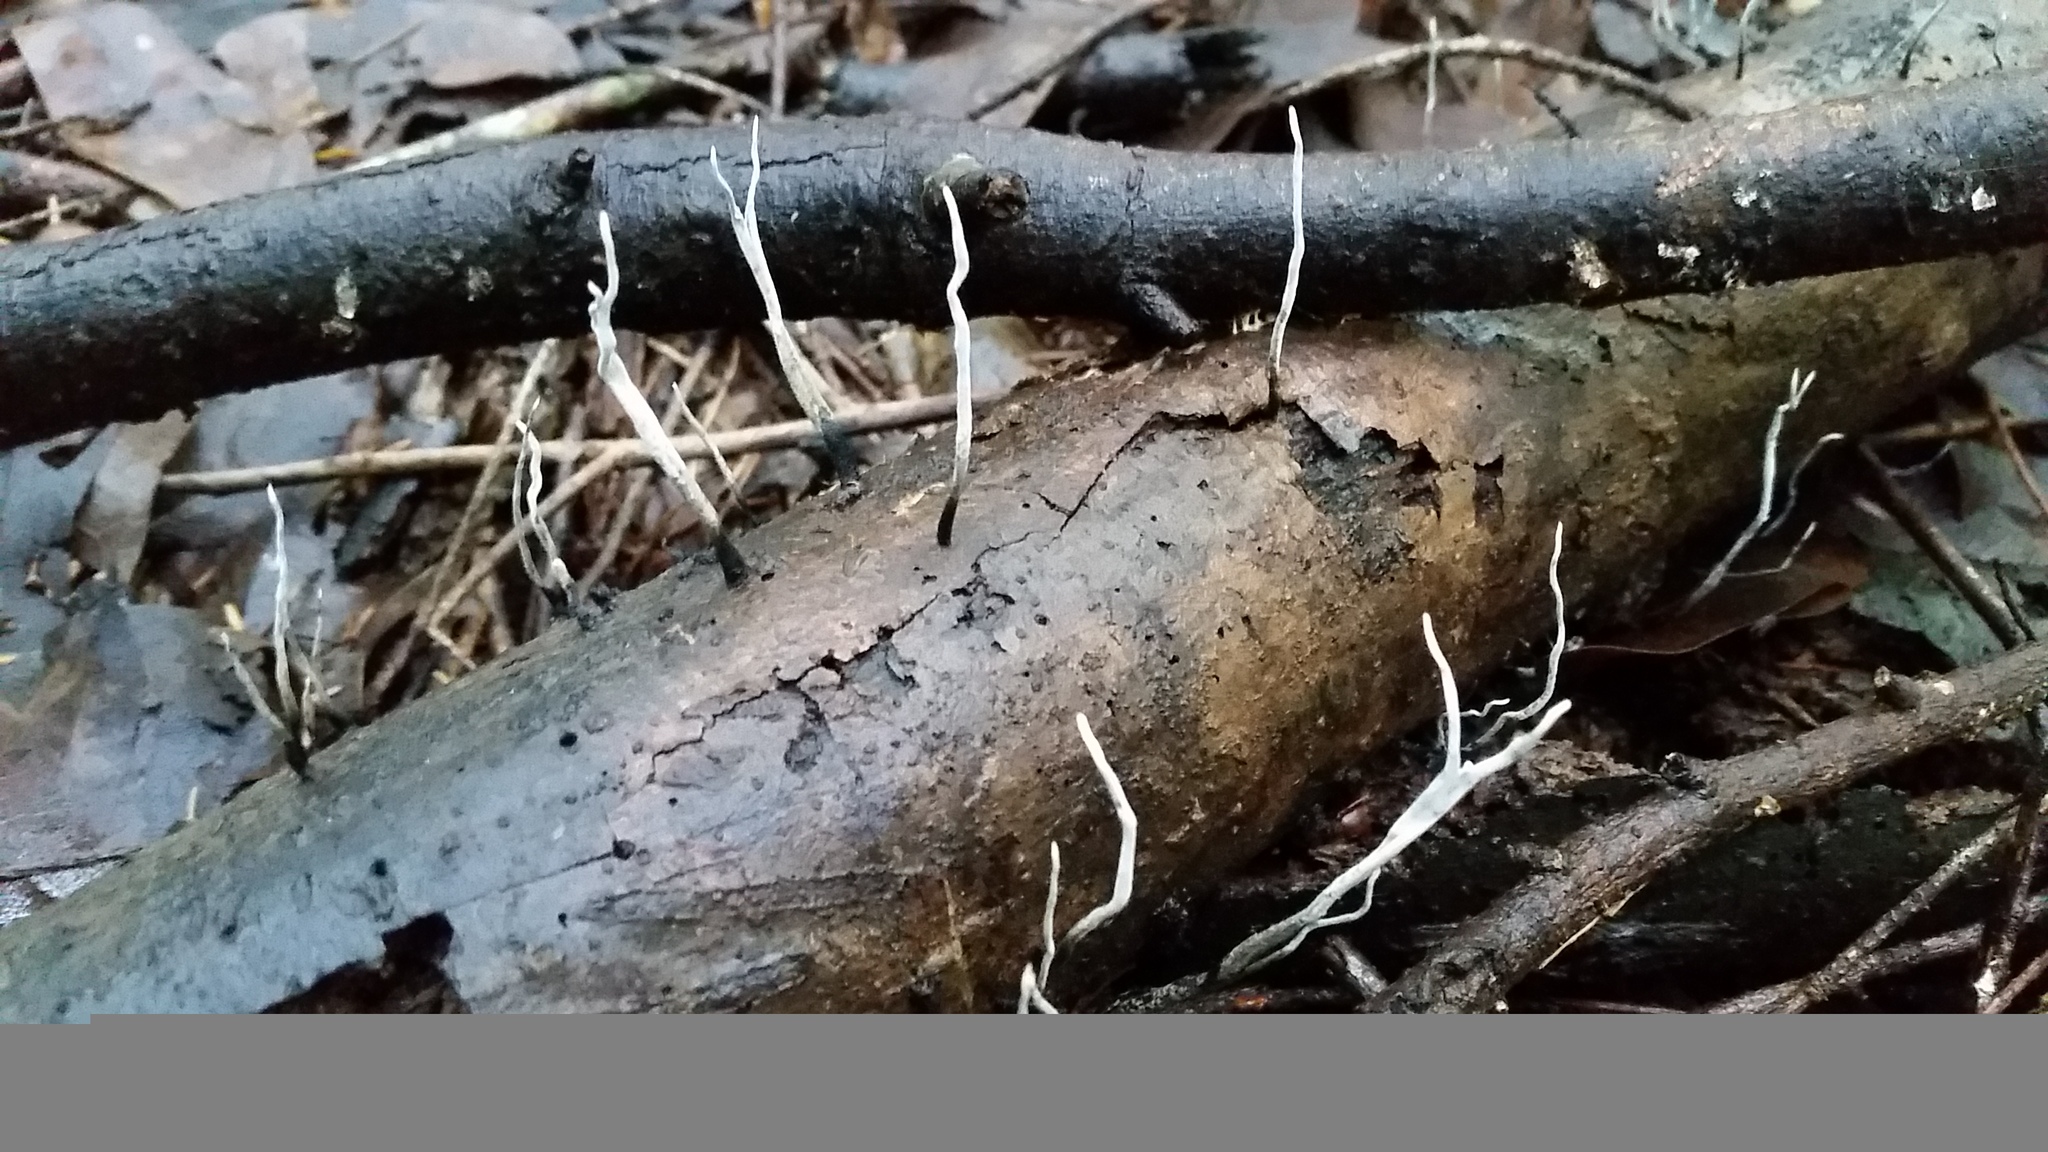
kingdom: Fungi
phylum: Ascomycota
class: Sordariomycetes
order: Xylariales
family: Xylariaceae
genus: Xylaria
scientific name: Xylaria hypoxylon
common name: Candle-snuff fungus
